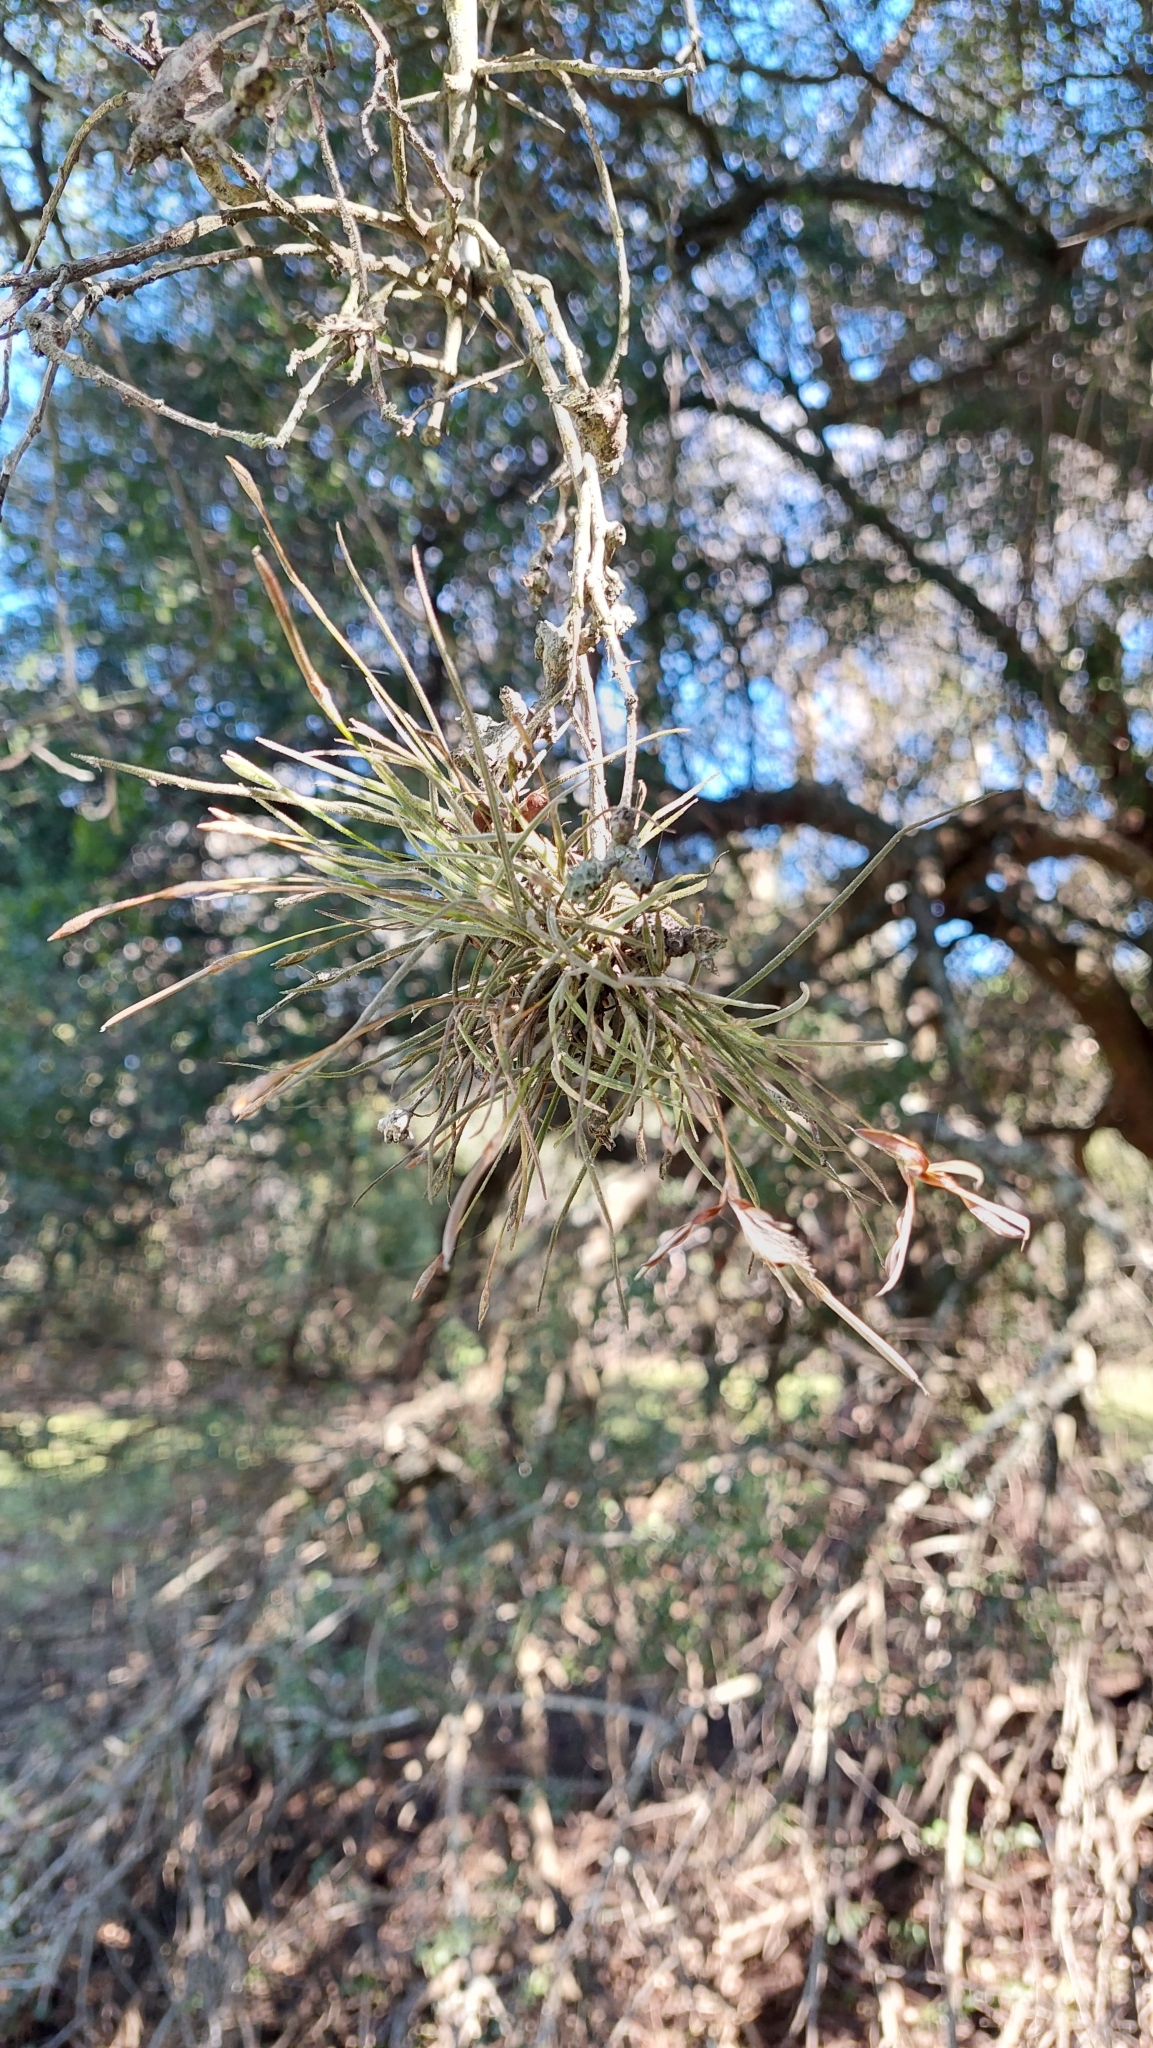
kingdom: Plantae
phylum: Tracheophyta
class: Liliopsida
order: Poales
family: Bromeliaceae
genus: Tillandsia
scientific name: Tillandsia recurvata
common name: Small ballmoss
